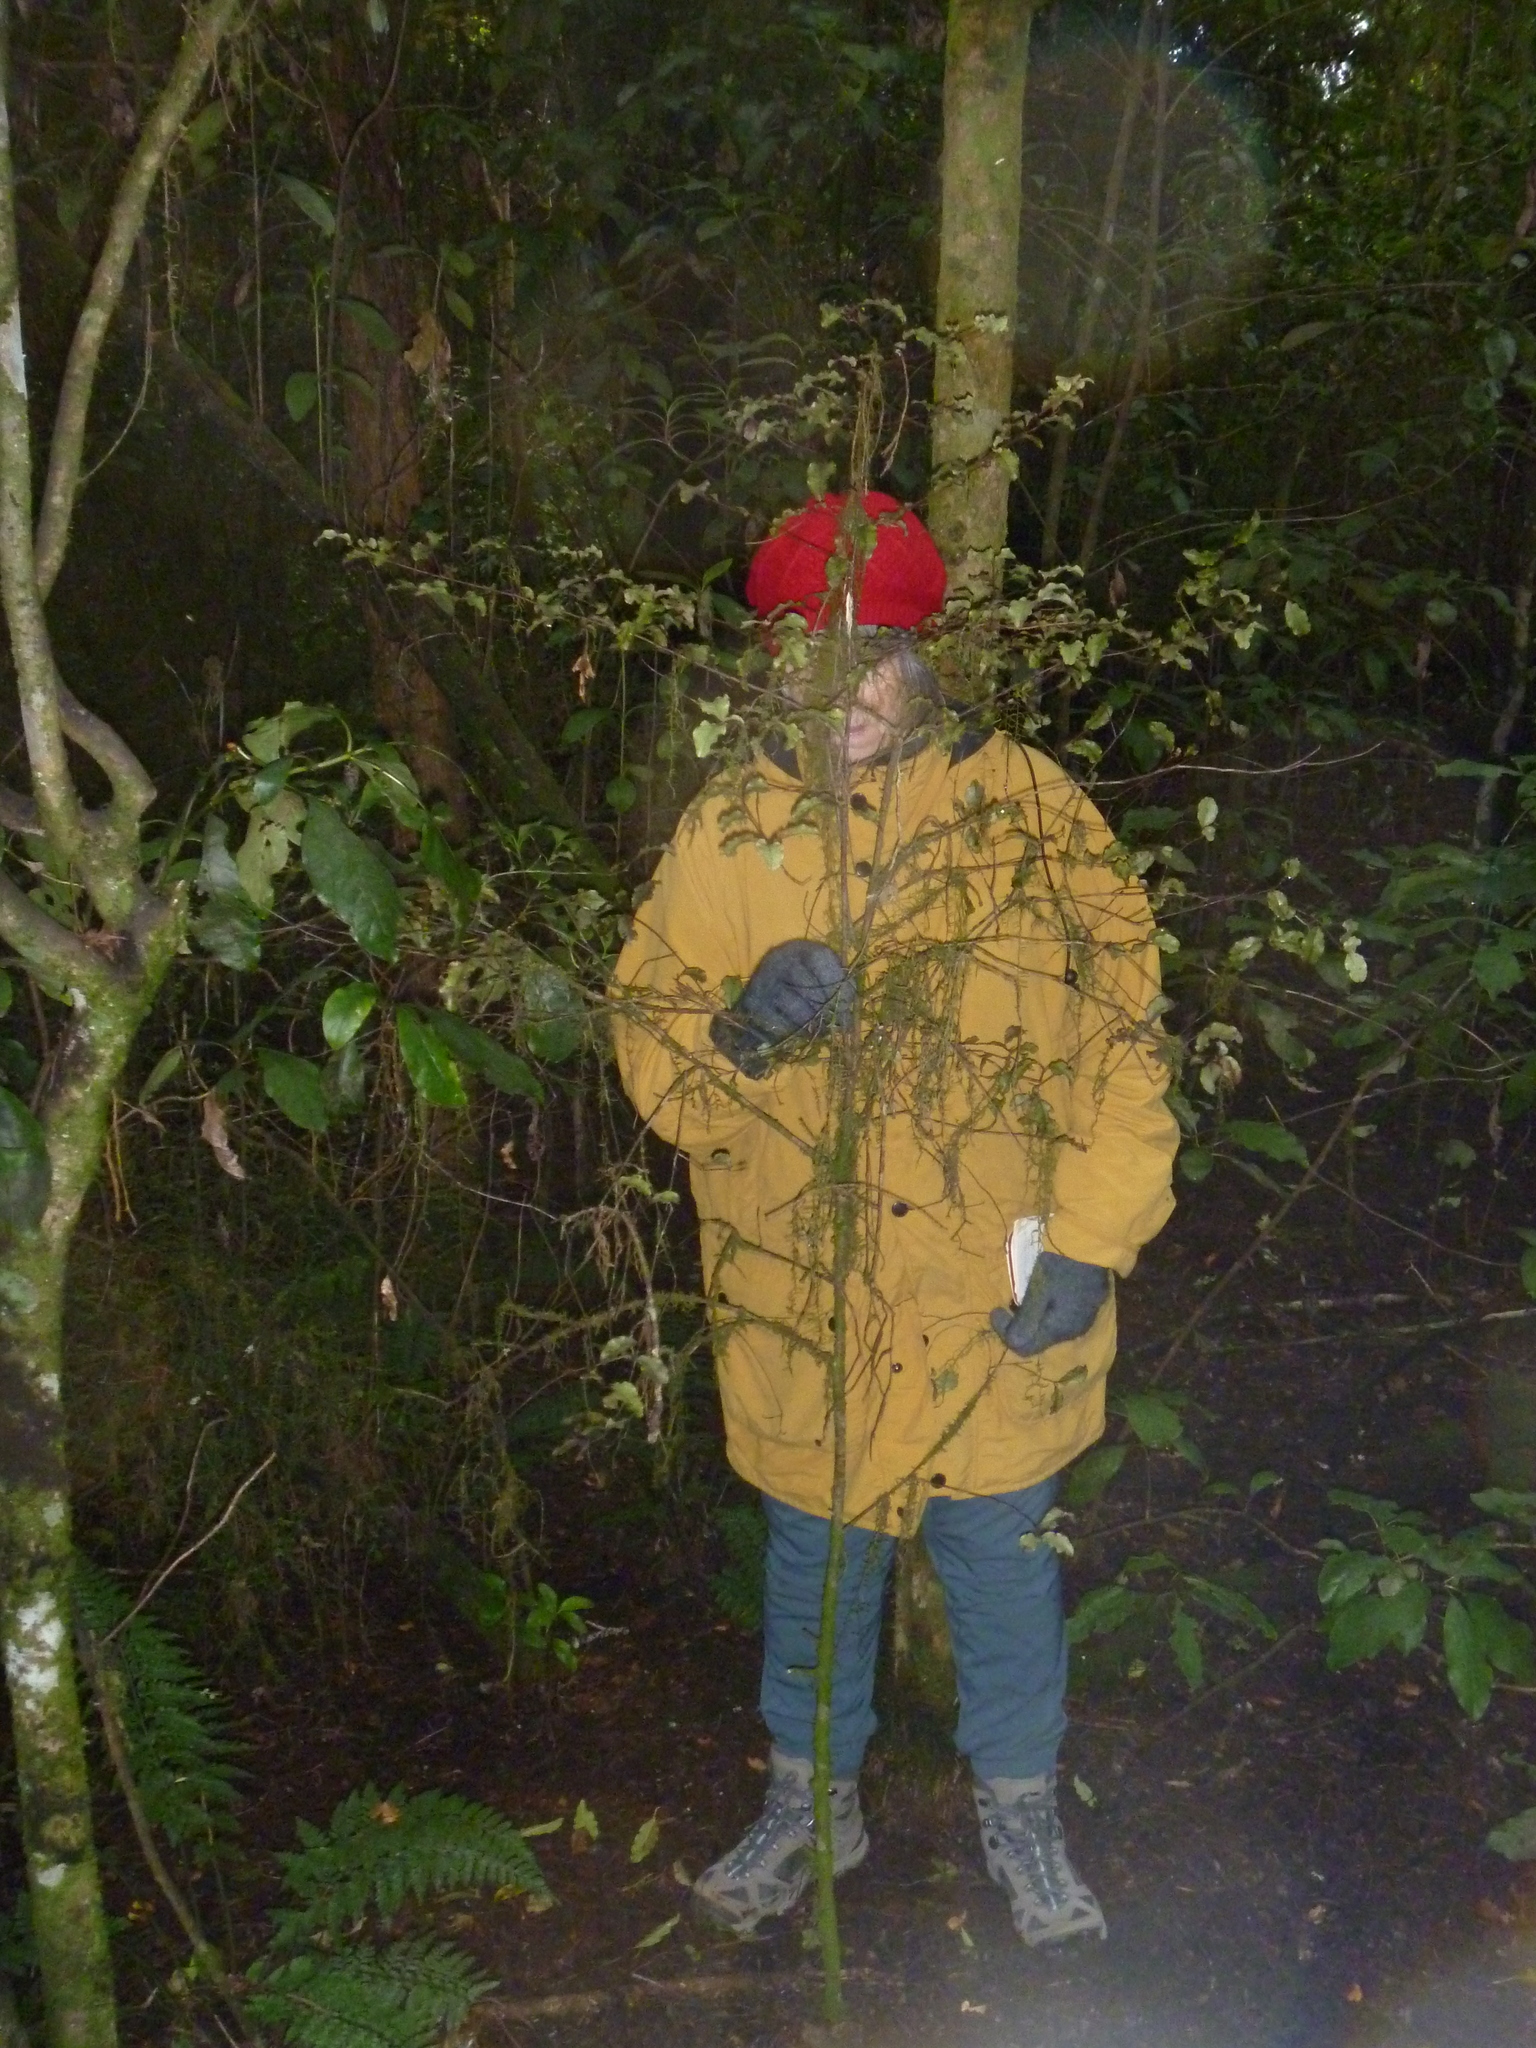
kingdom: Plantae
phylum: Tracheophyta
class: Magnoliopsida
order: Ericales
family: Primulaceae
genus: Myrsine
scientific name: Myrsine australis
